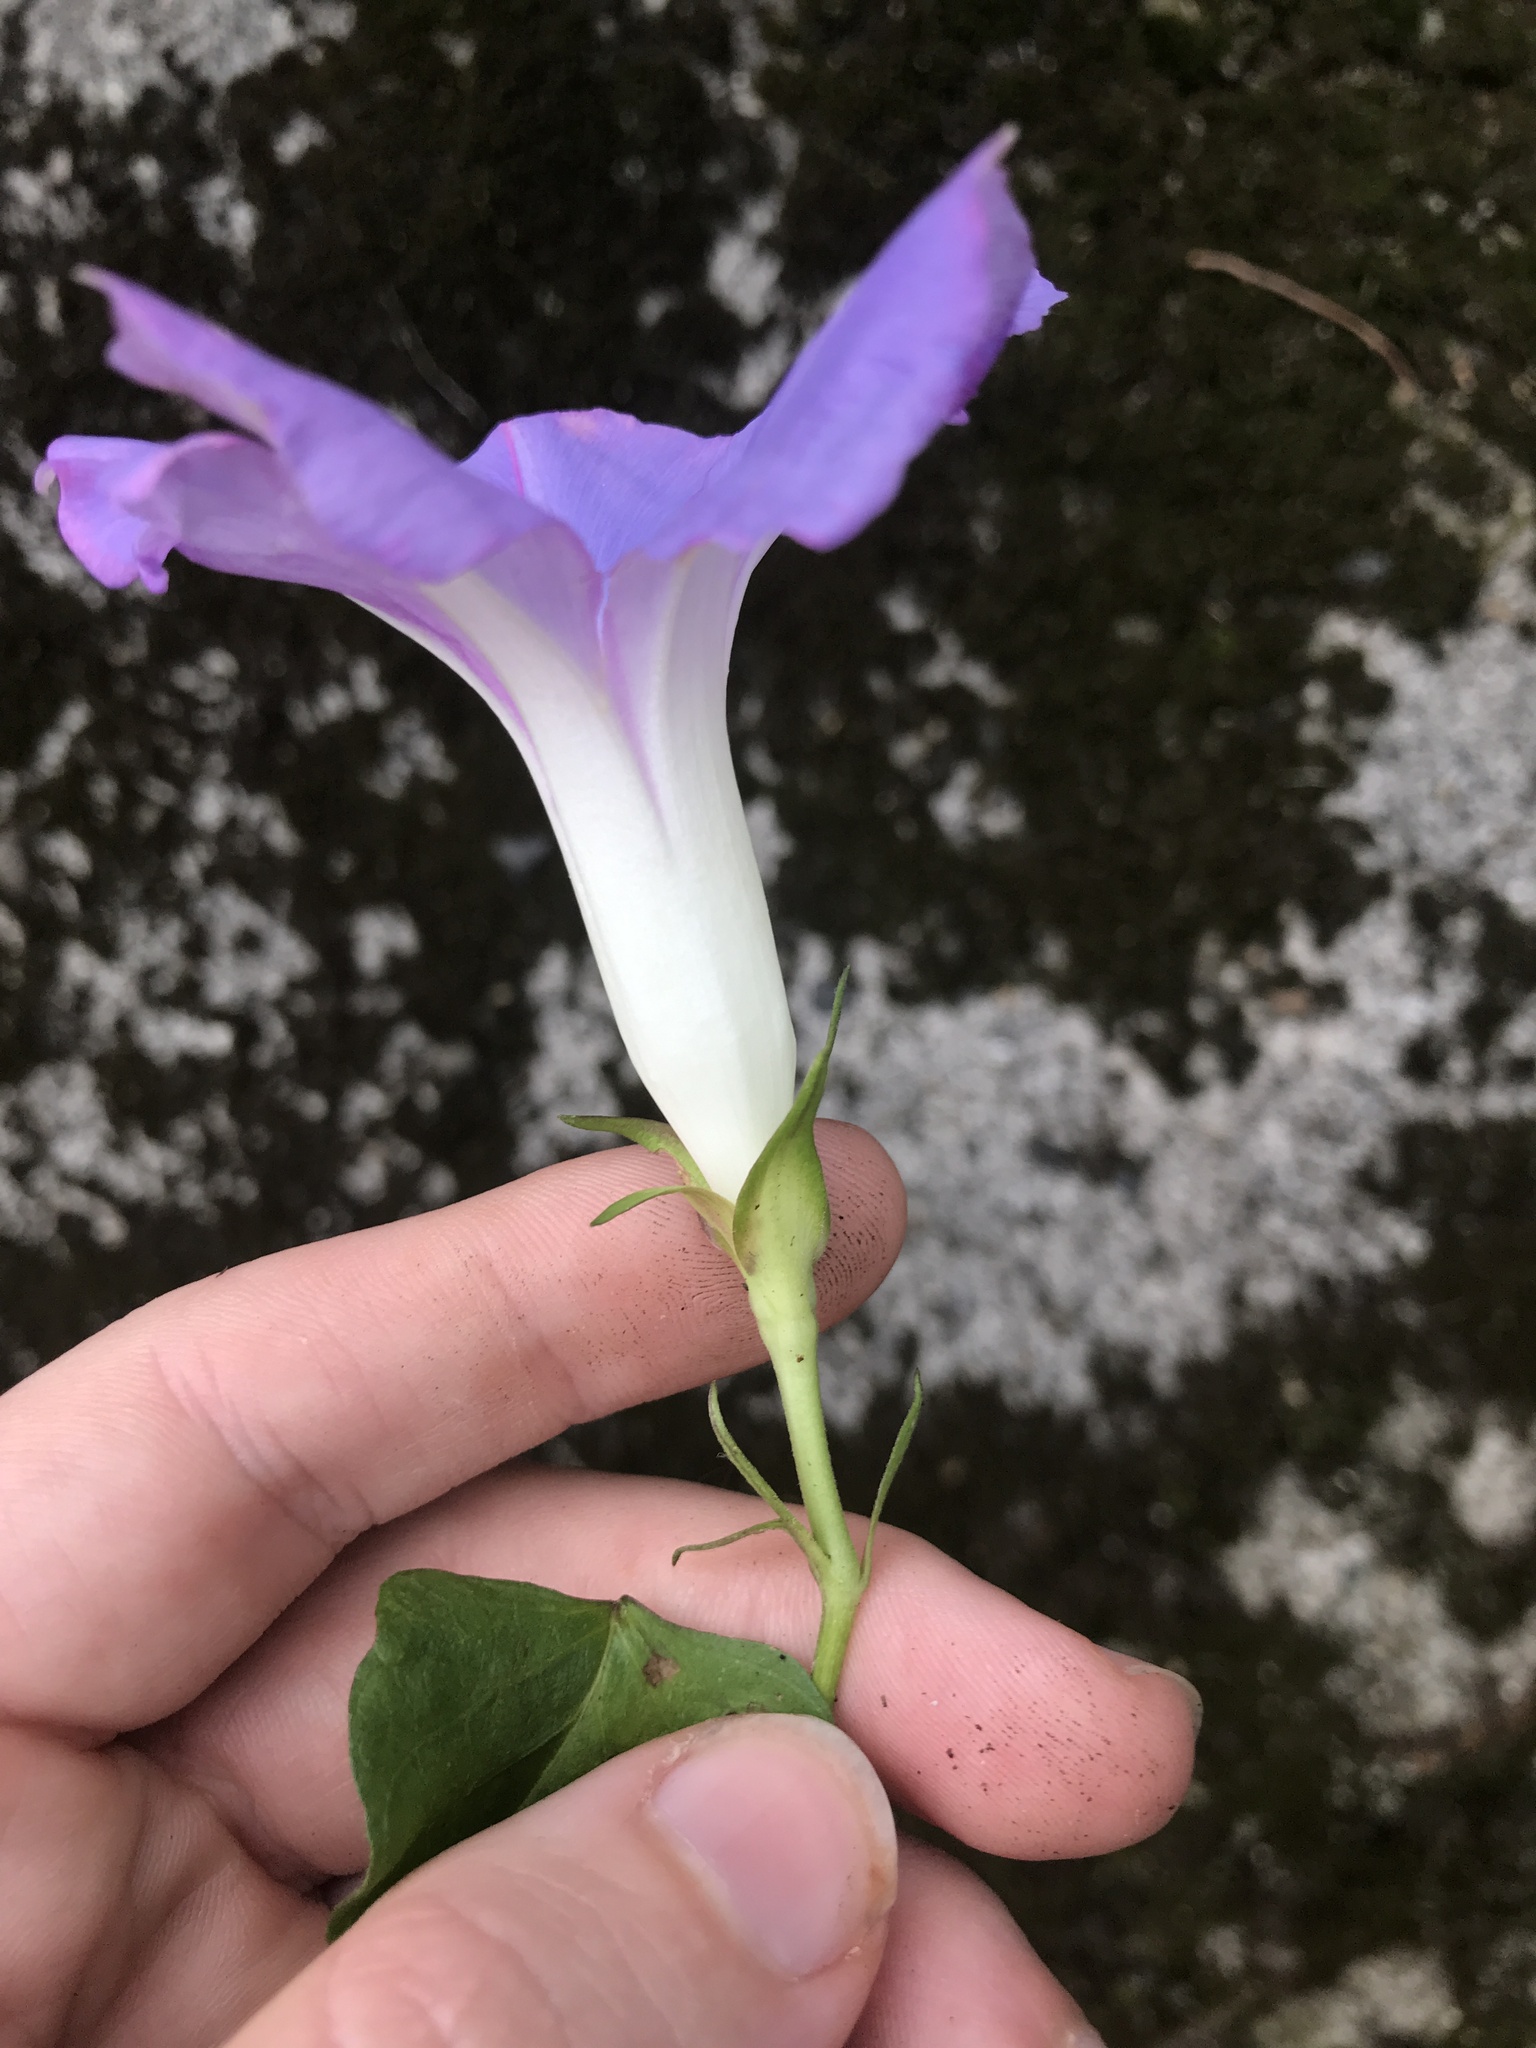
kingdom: Plantae
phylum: Tracheophyta
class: Magnoliopsida
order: Solanales
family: Convolvulaceae
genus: Ipomoea
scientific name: Ipomoea indica
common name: Blue dawnflower
